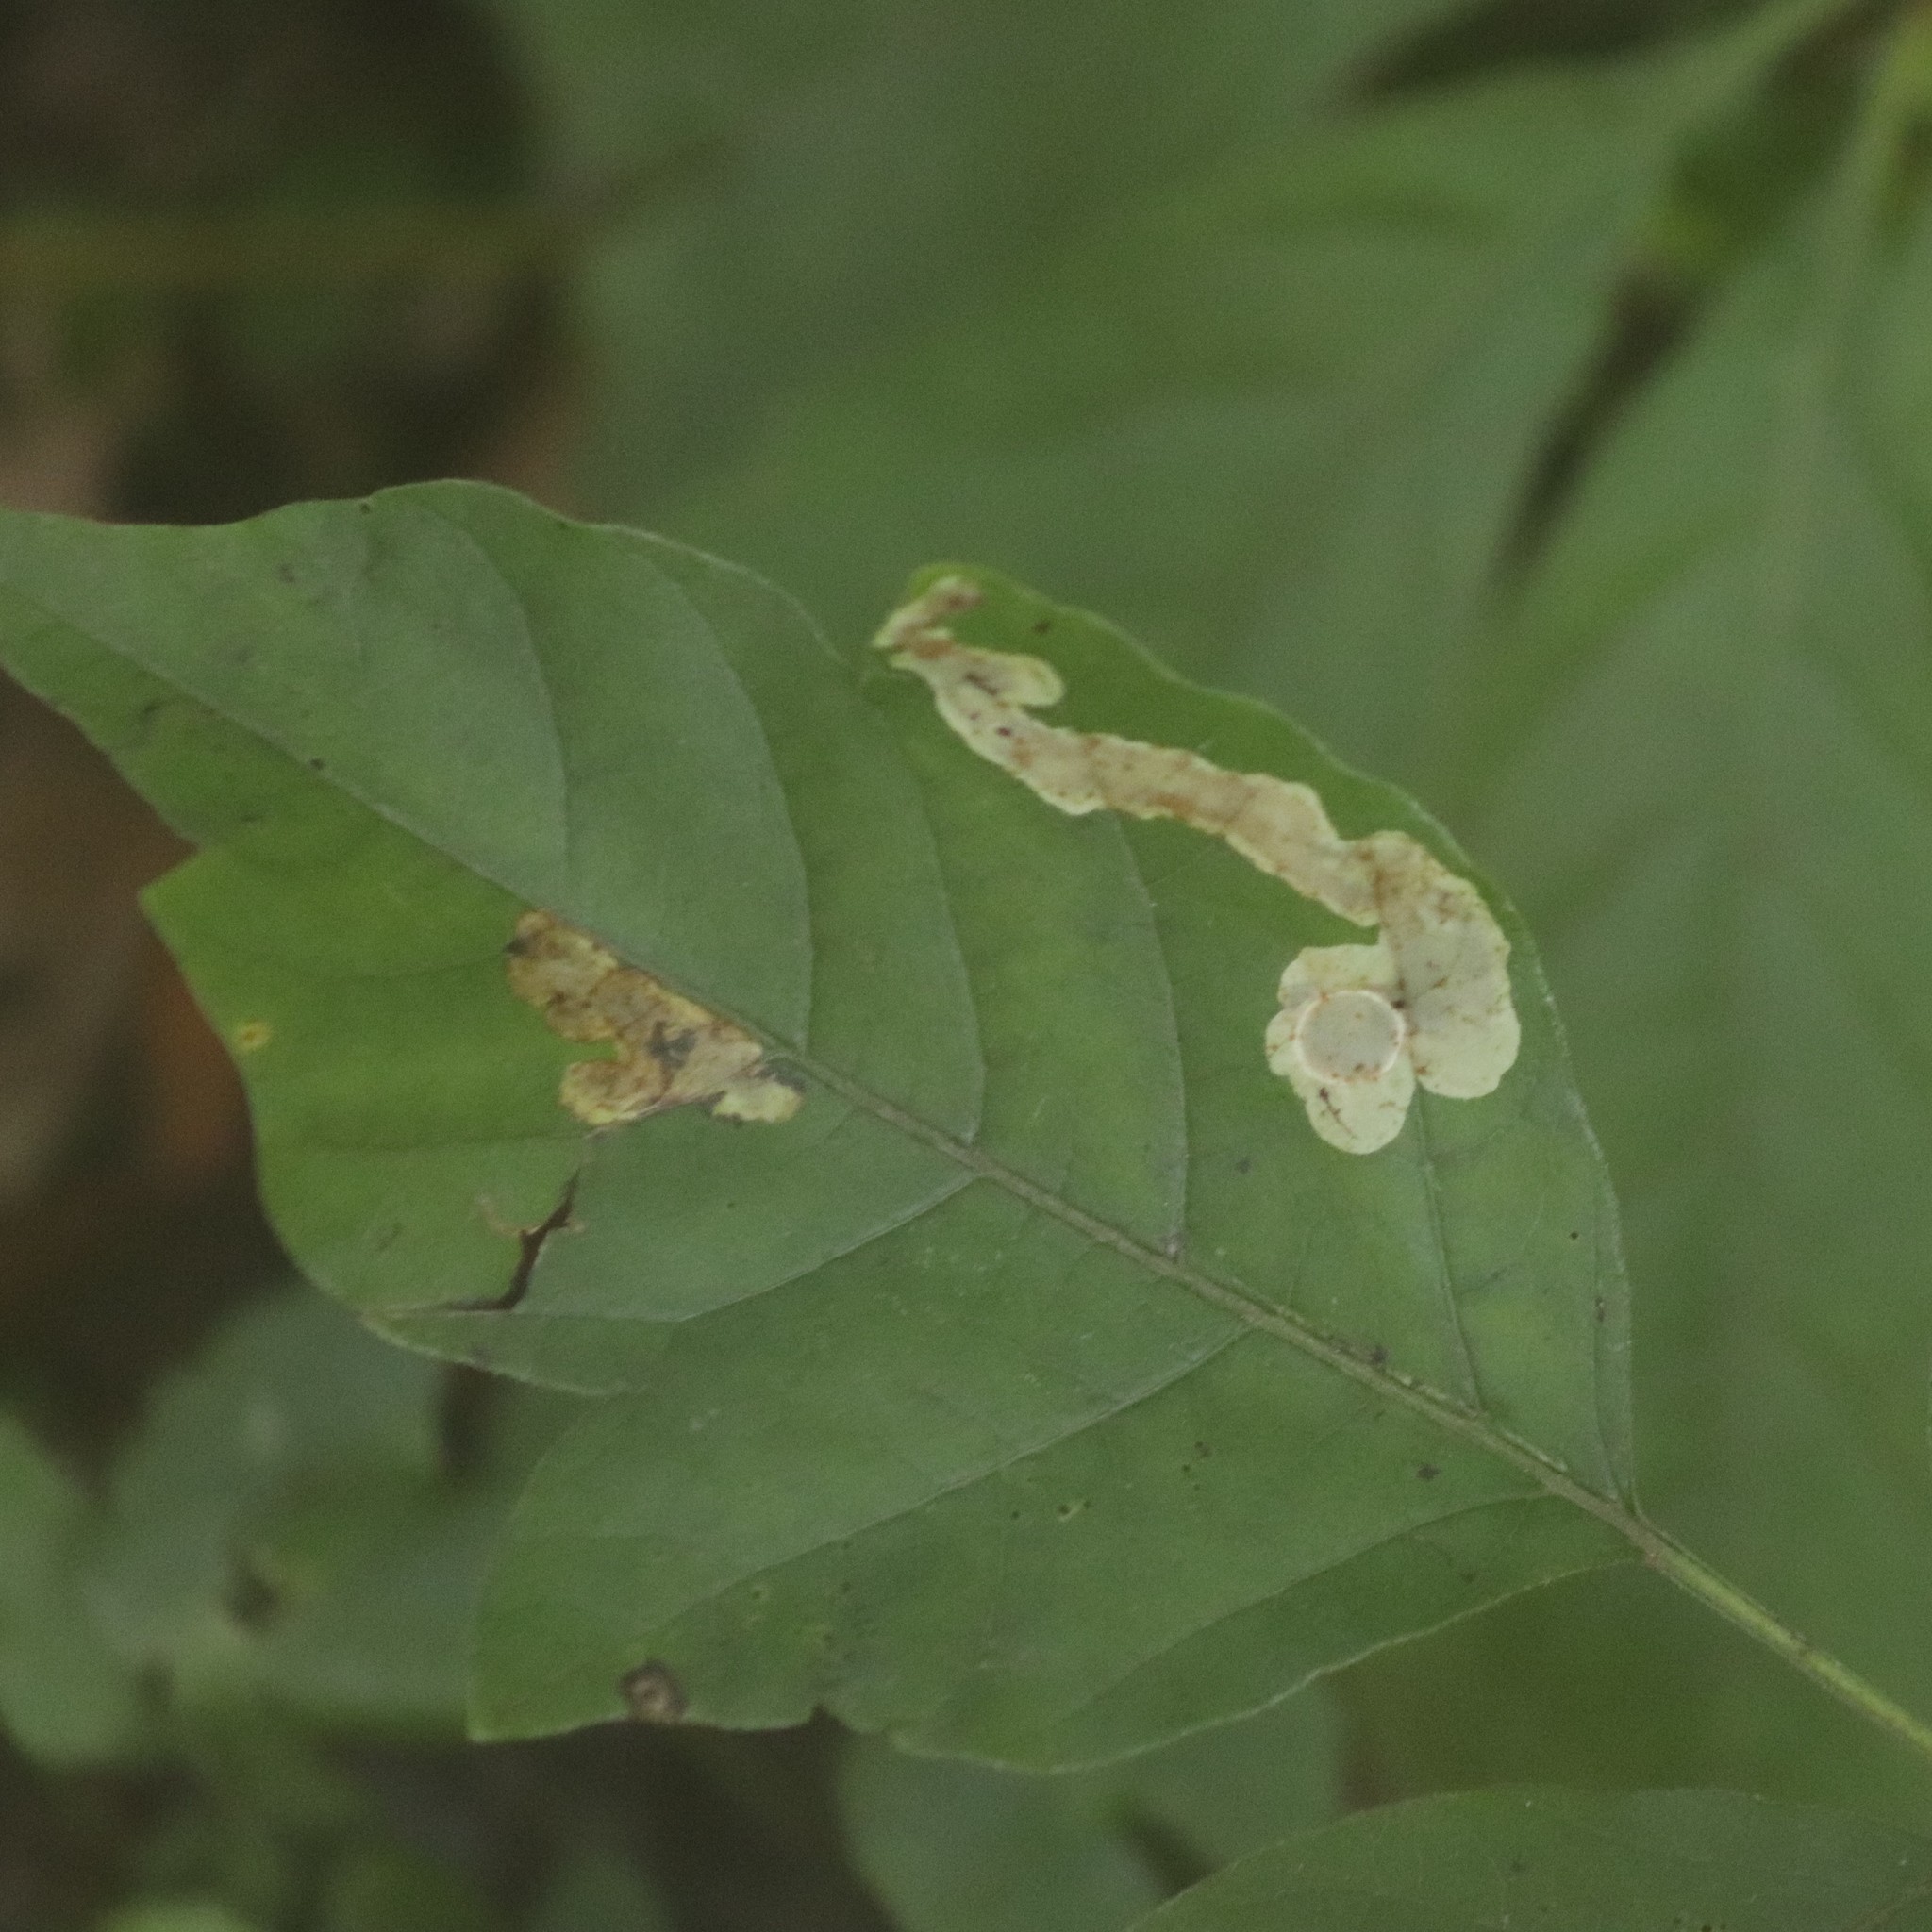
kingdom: Animalia
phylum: Arthropoda
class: Insecta
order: Lepidoptera
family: Gracillariidae
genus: Cameraria
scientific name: Cameraria guttifinitella
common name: Poison ivy leaf-miner moth
